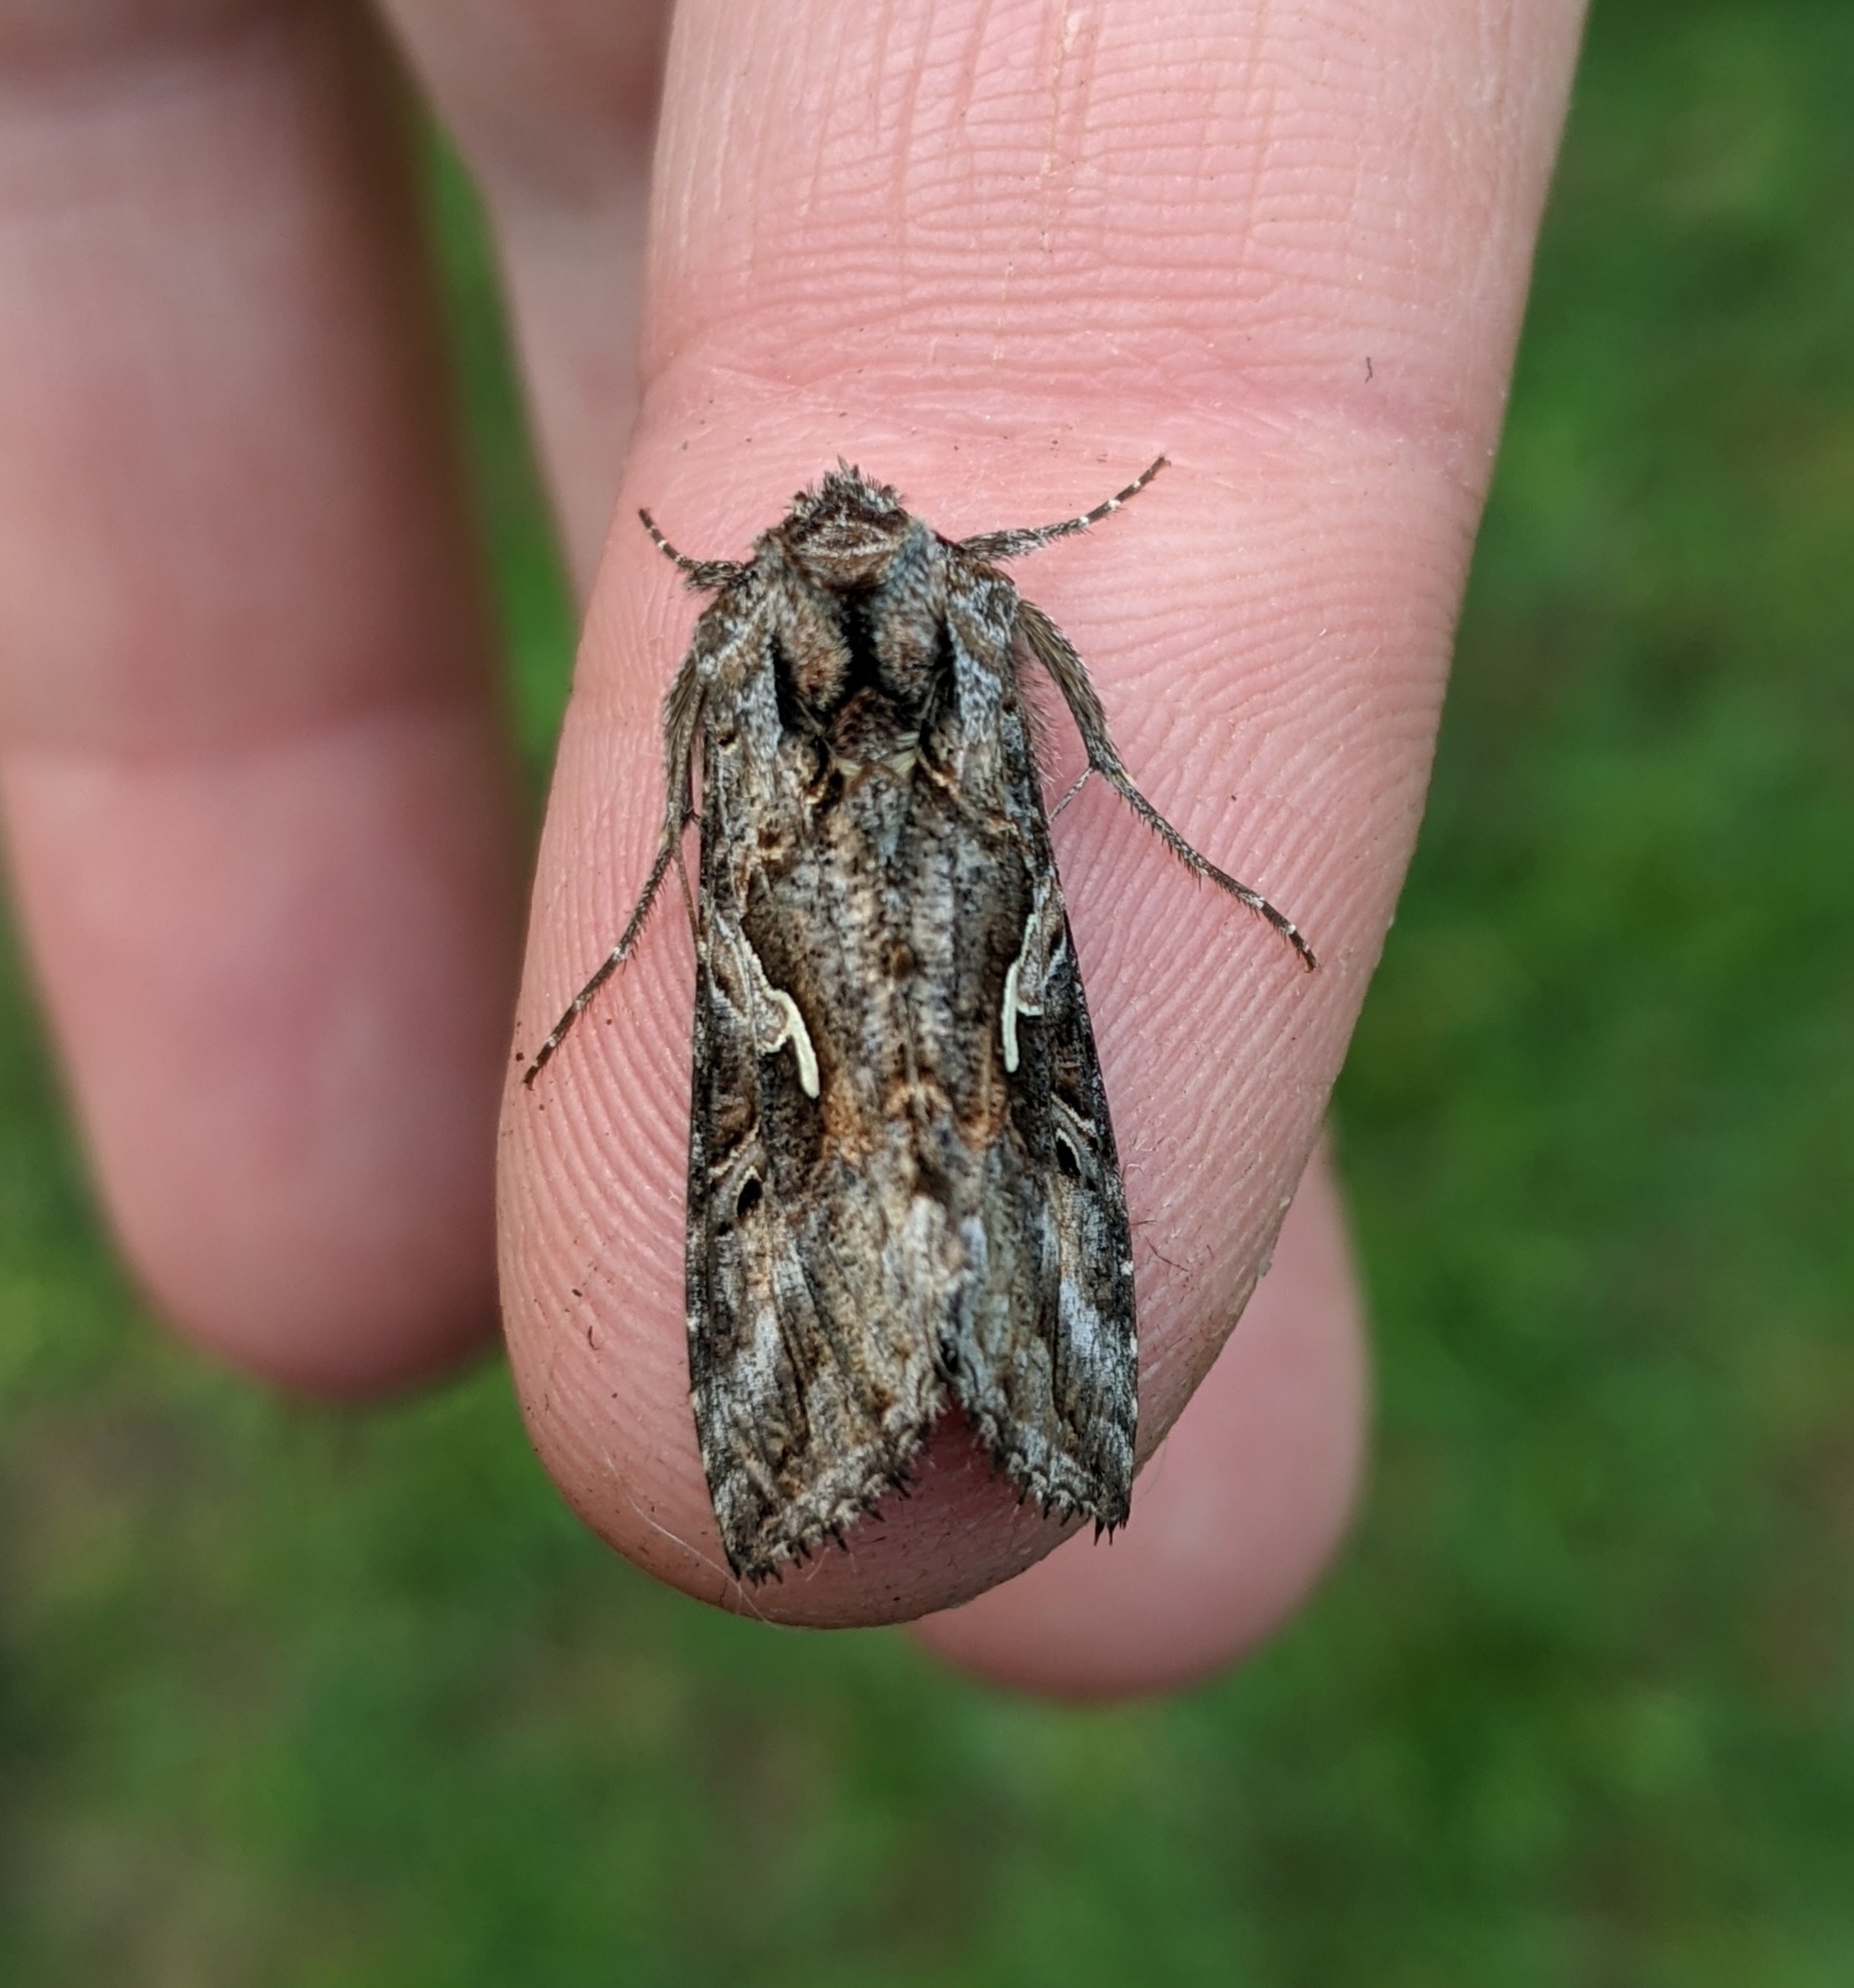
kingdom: Animalia
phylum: Arthropoda
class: Insecta
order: Lepidoptera
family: Noctuidae
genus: Autographa
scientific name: Autographa californica
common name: Alfalfa looper
